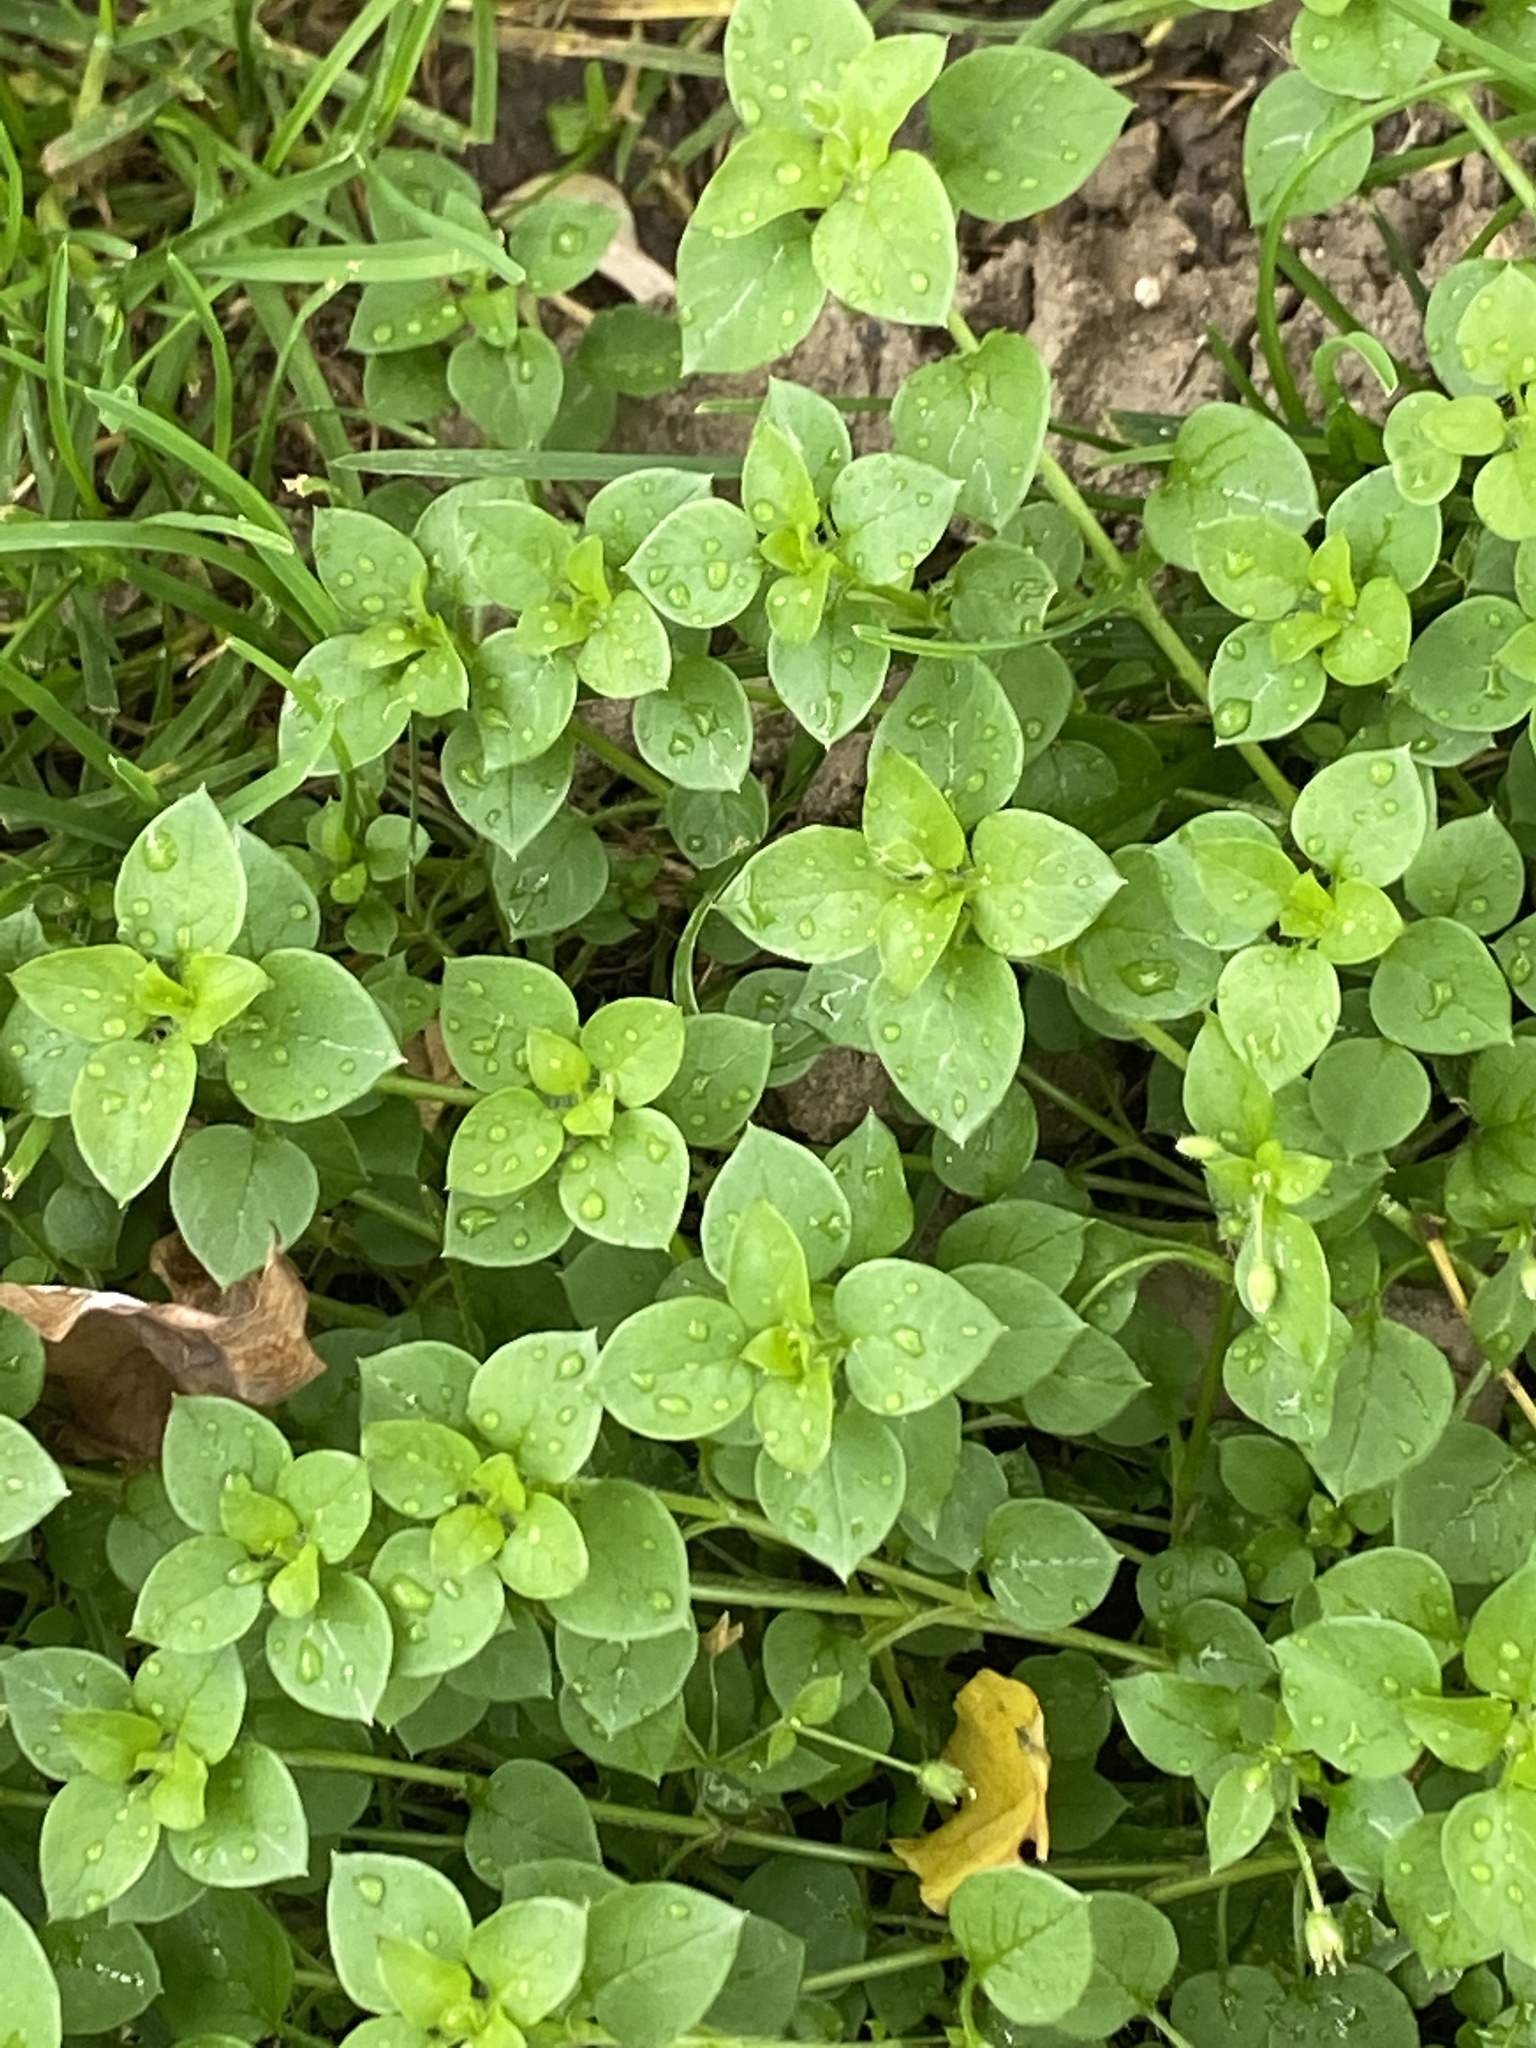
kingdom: Plantae
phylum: Tracheophyta
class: Magnoliopsida
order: Caryophyllales
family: Caryophyllaceae
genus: Stellaria
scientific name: Stellaria media
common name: Common chickweed
